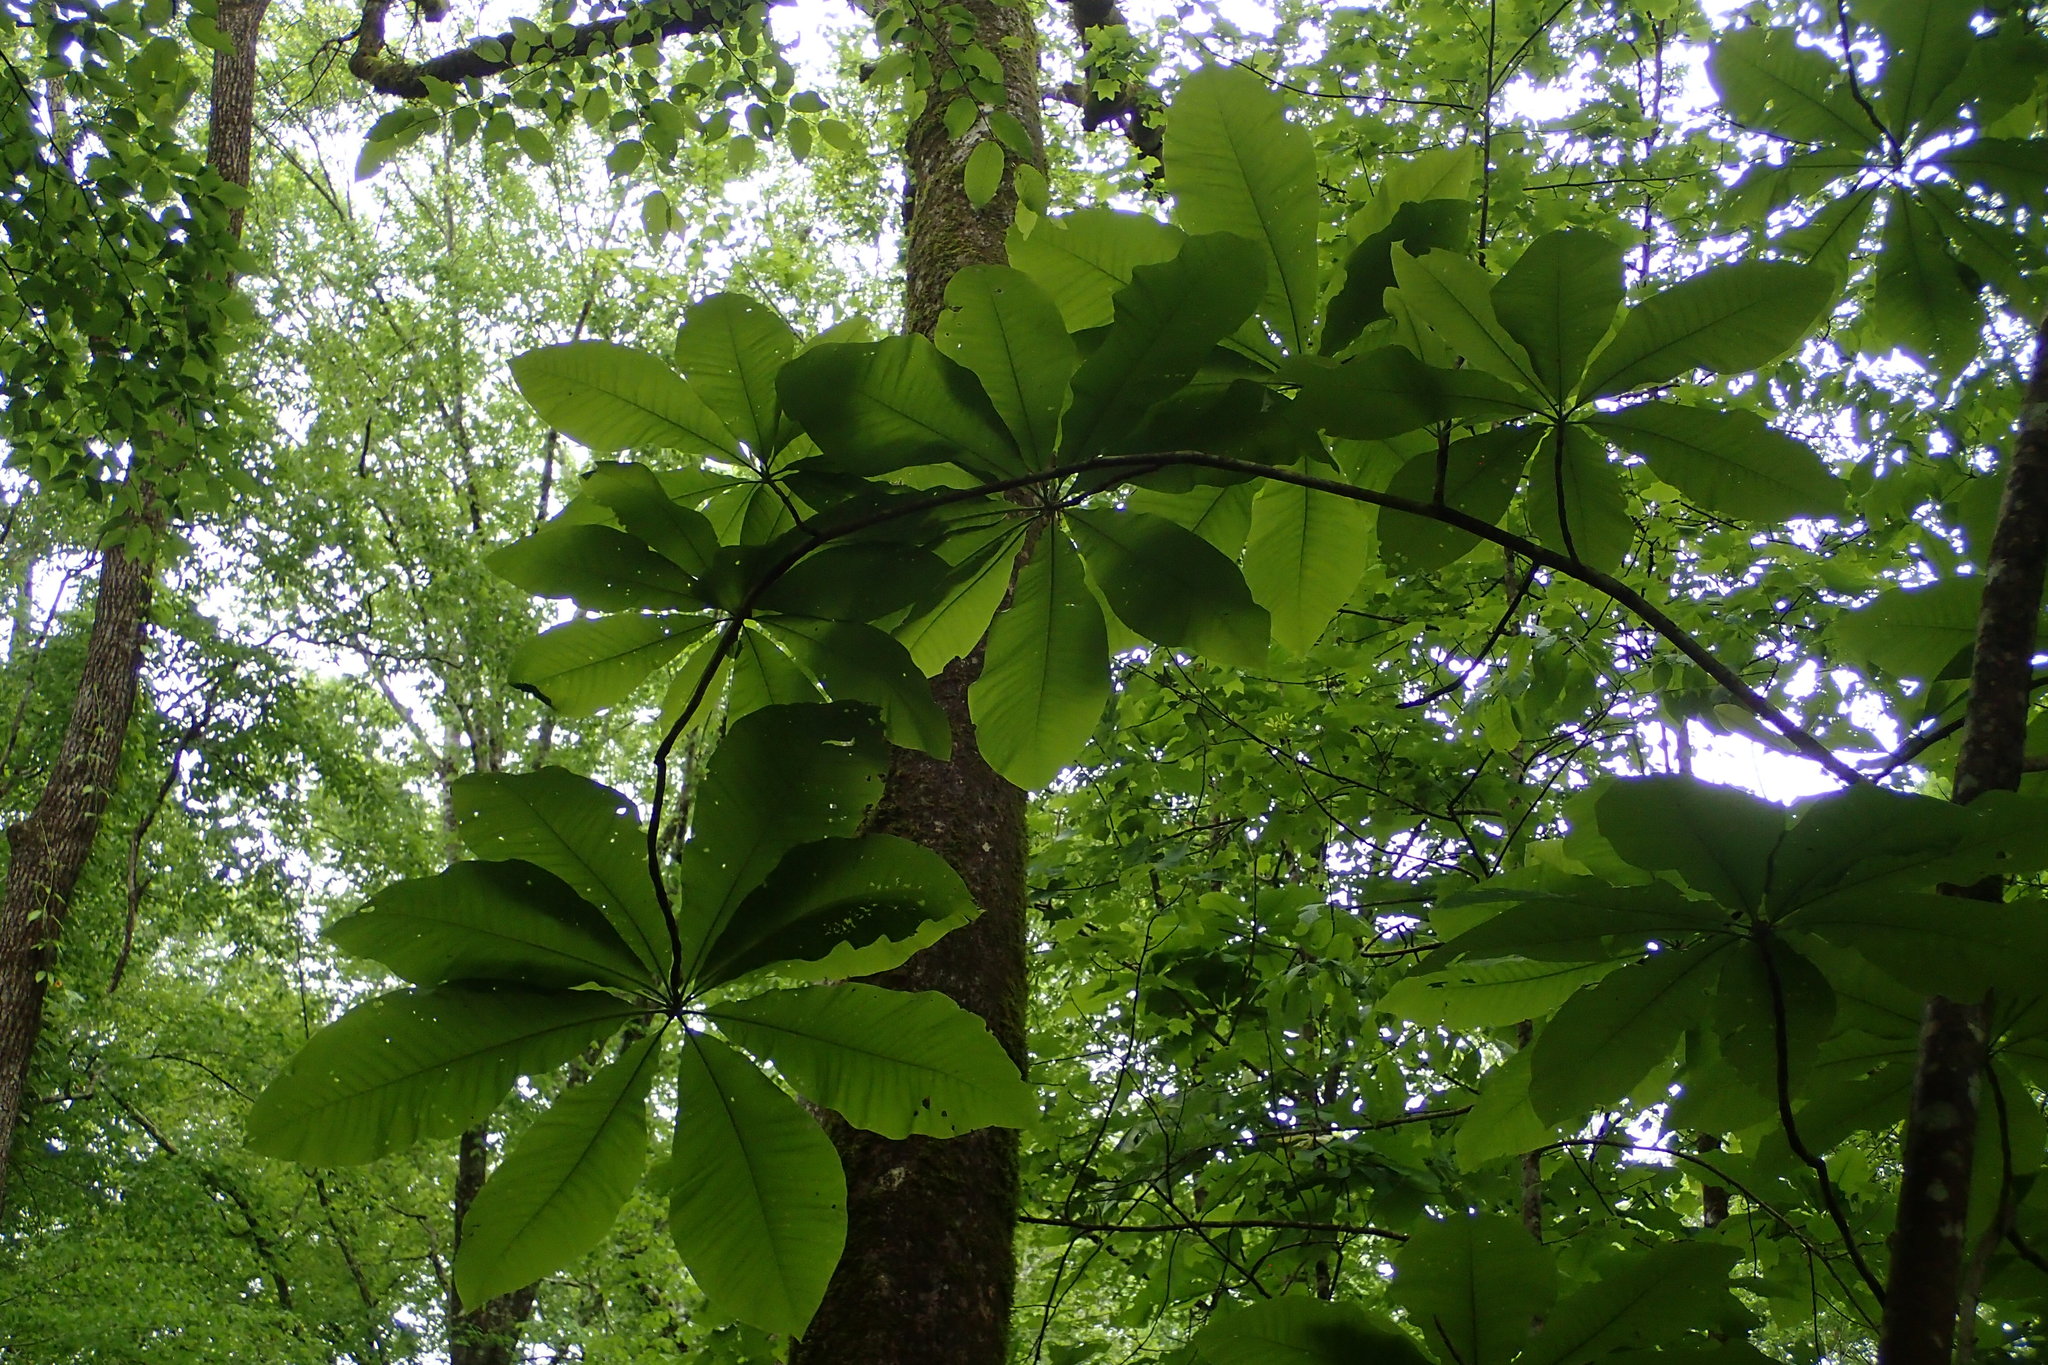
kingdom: Plantae
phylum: Tracheophyta
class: Magnoliopsida
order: Magnoliales
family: Magnoliaceae
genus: Magnolia
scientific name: Magnolia tripetala
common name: Umbrella magnolia
